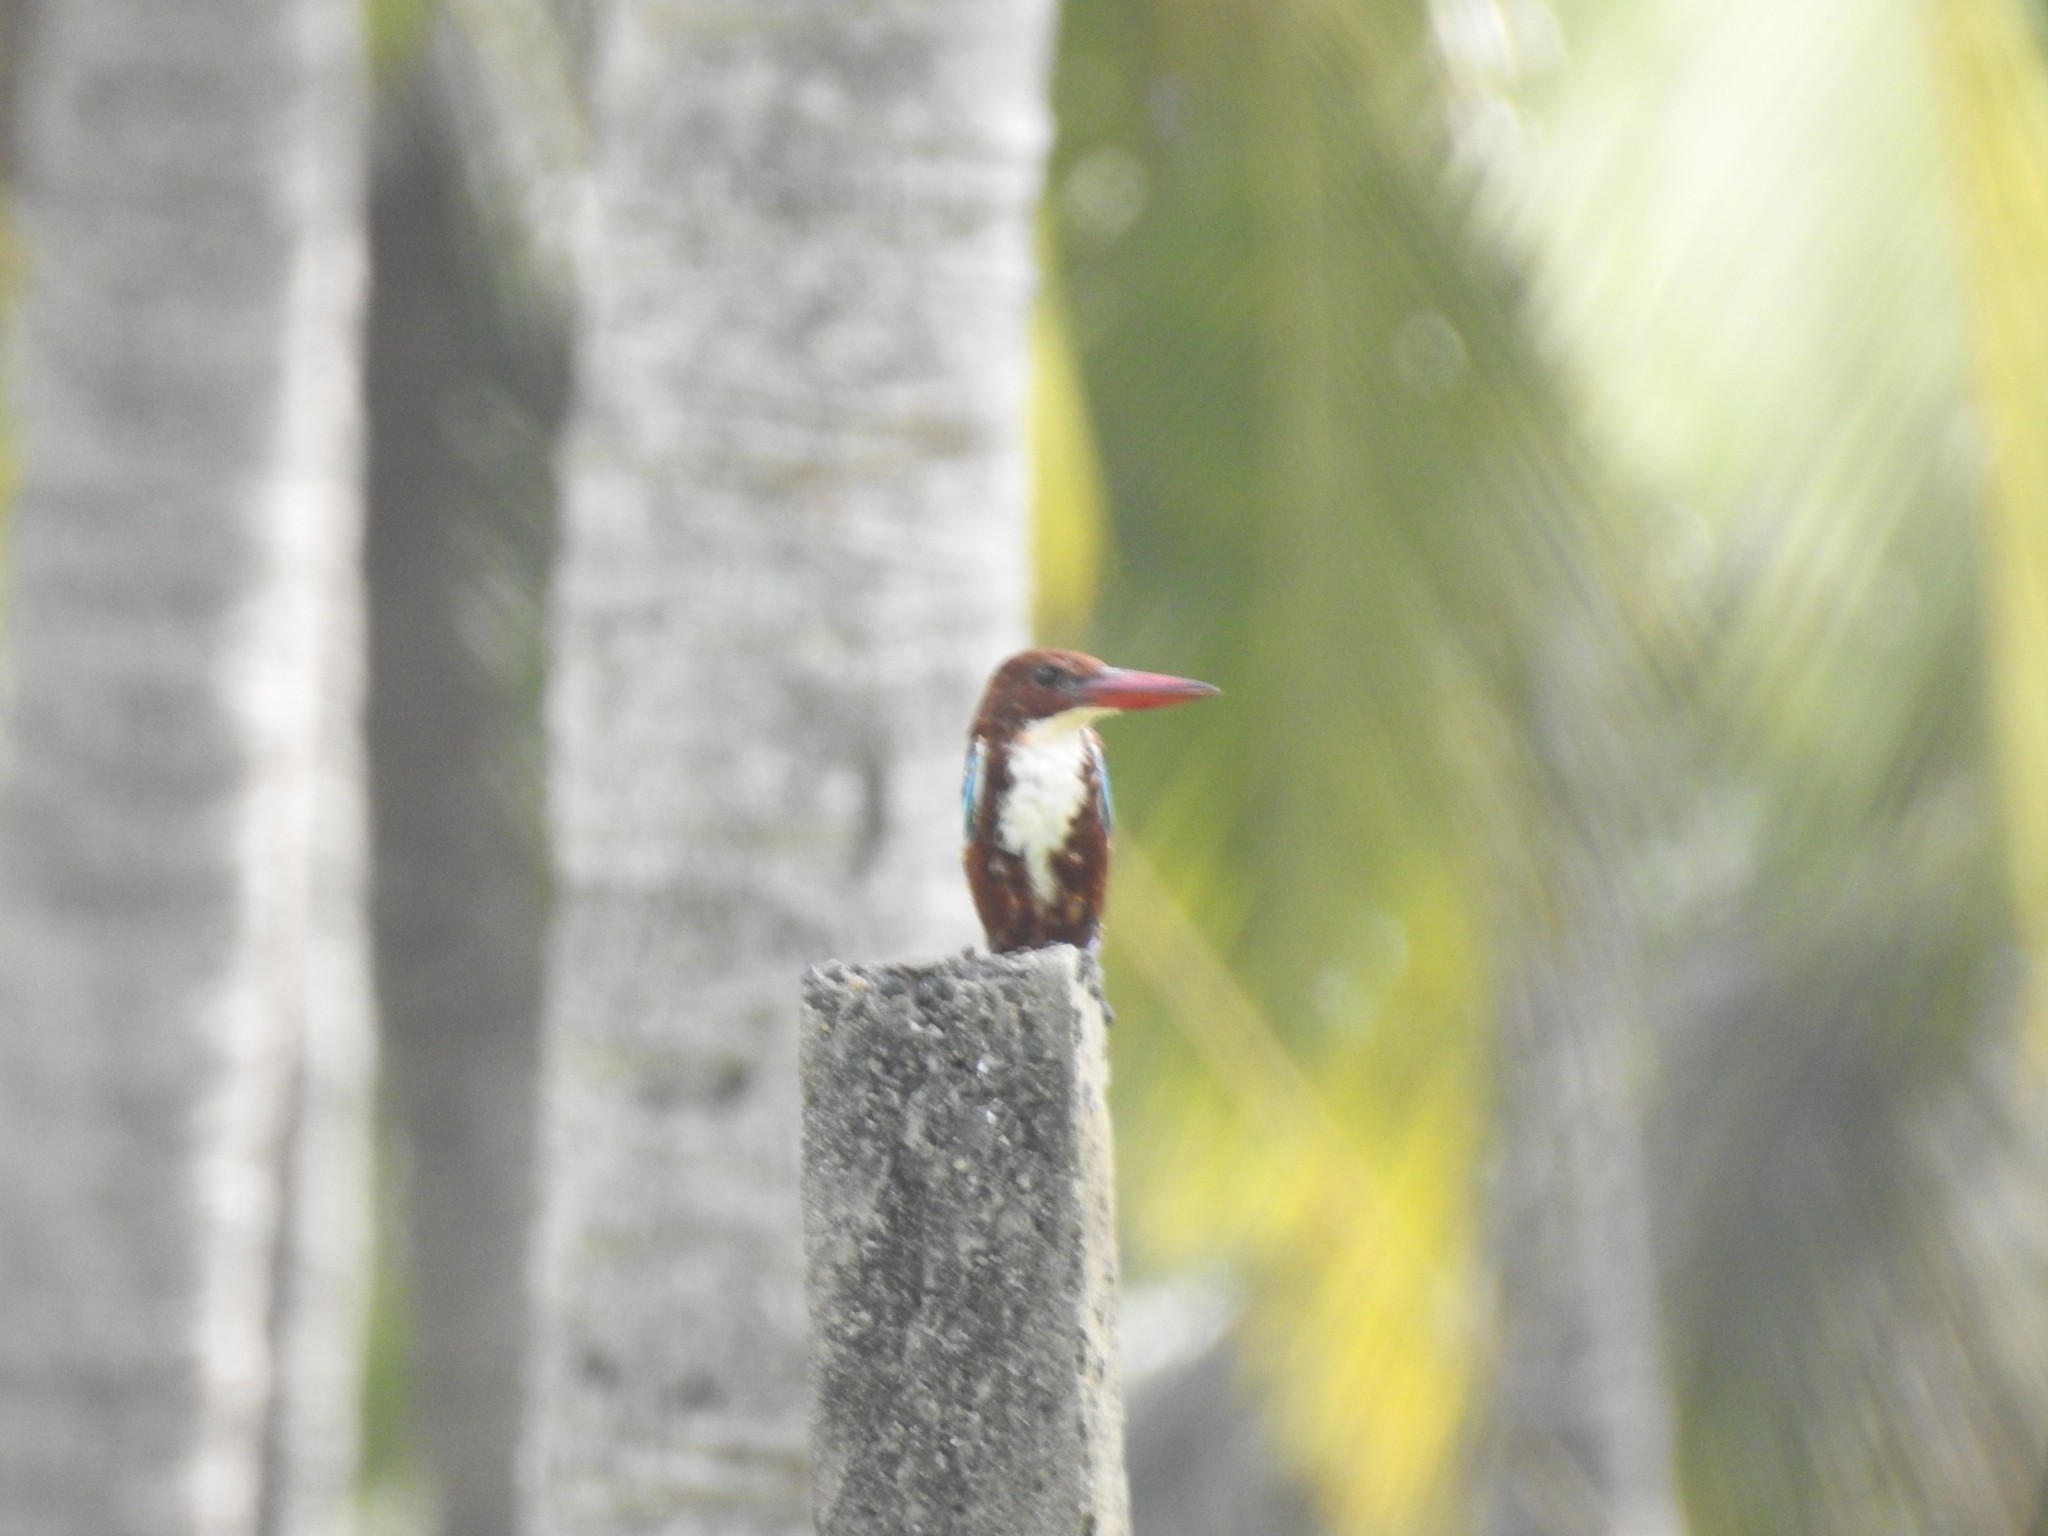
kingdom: Animalia
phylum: Chordata
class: Aves
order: Coraciiformes
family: Alcedinidae
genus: Halcyon
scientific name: Halcyon smyrnensis
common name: White-throated kingfisher
